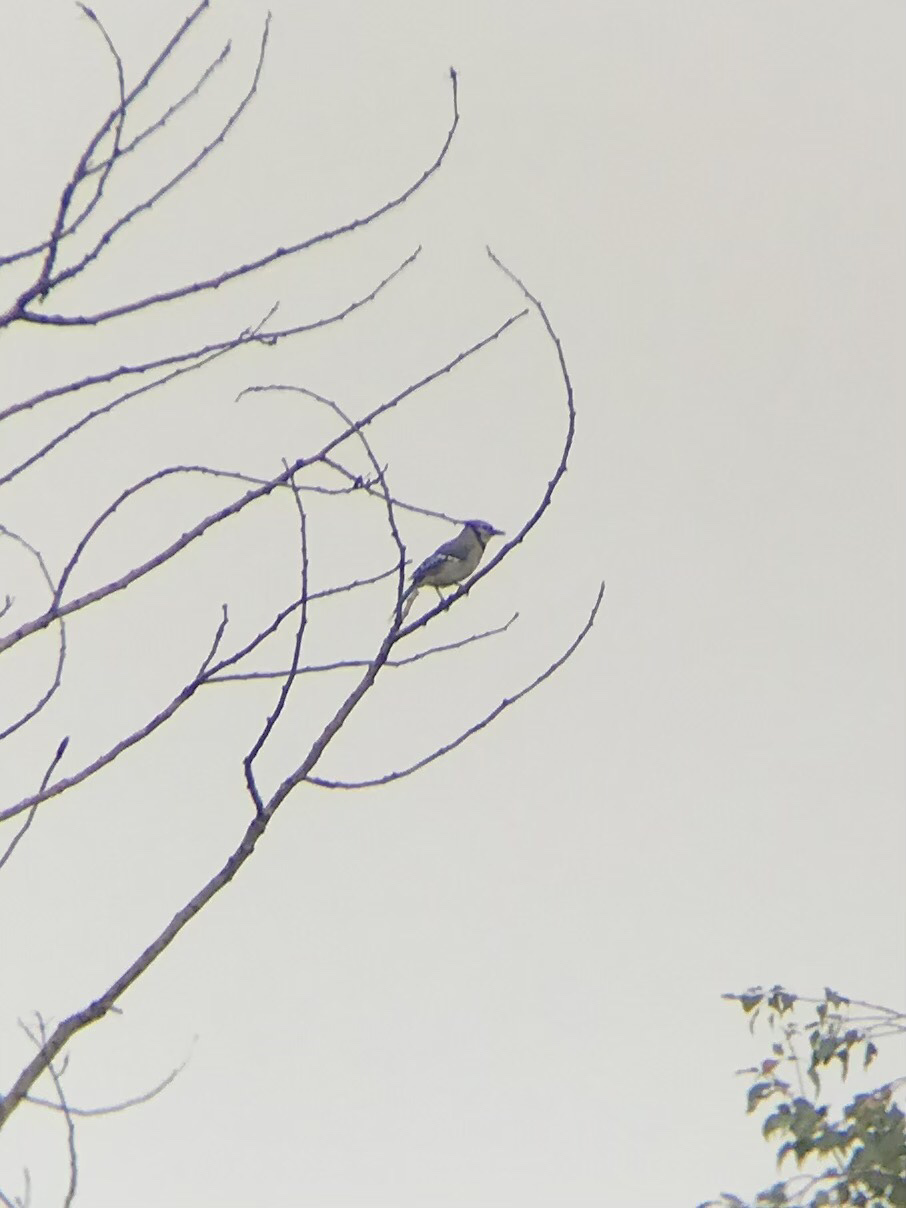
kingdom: Animalia
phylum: Chordata
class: Aves
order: Passeriformes
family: Corvidae
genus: Cyanocitta
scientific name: Cyanocitta cristata
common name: Blue jay
